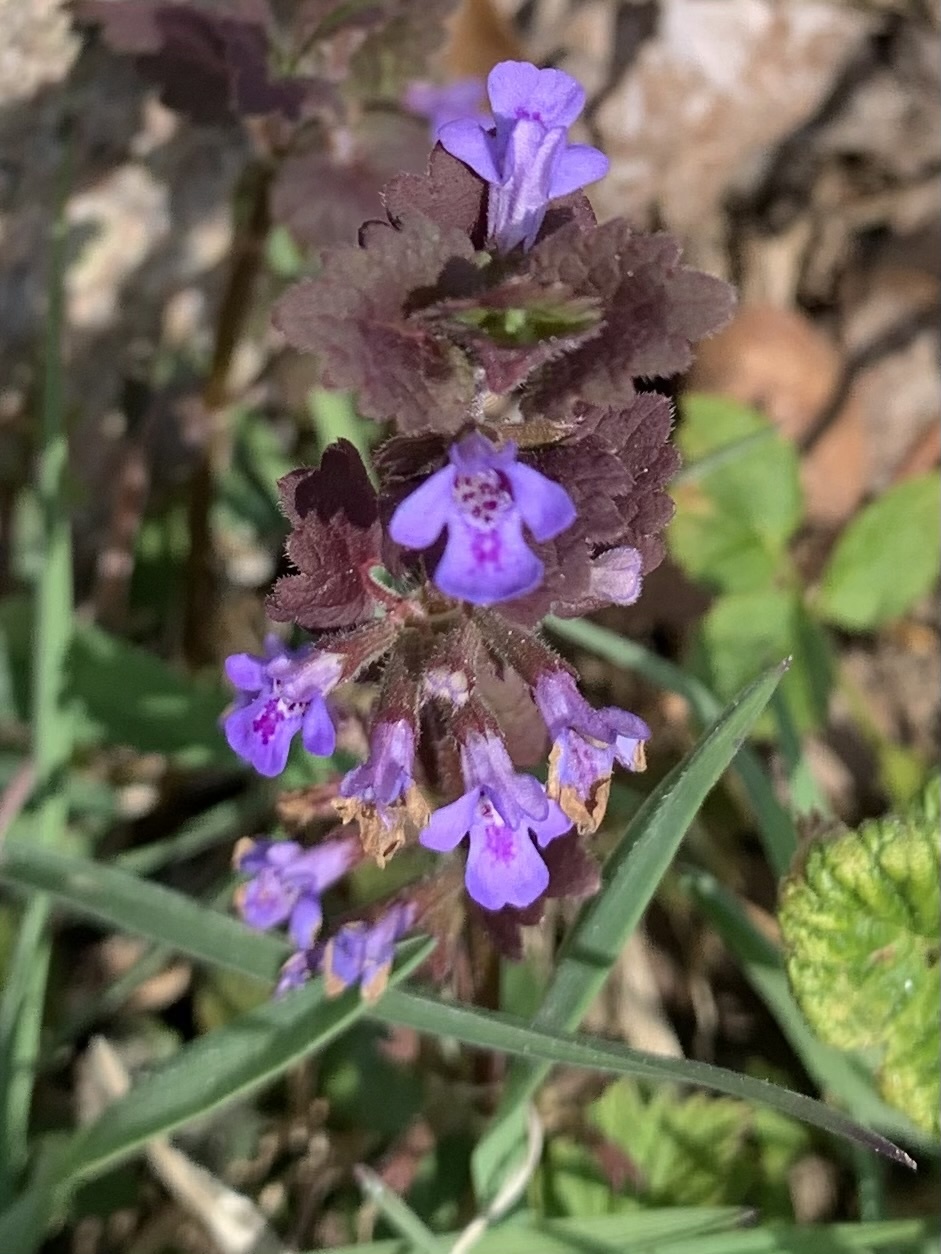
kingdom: Plantae
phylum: Tracheophyta
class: Magnoliopsida
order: Lamiales
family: Lamiaceae
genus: Glechoma
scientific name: Glechoma hederacea
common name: Ground ivy
